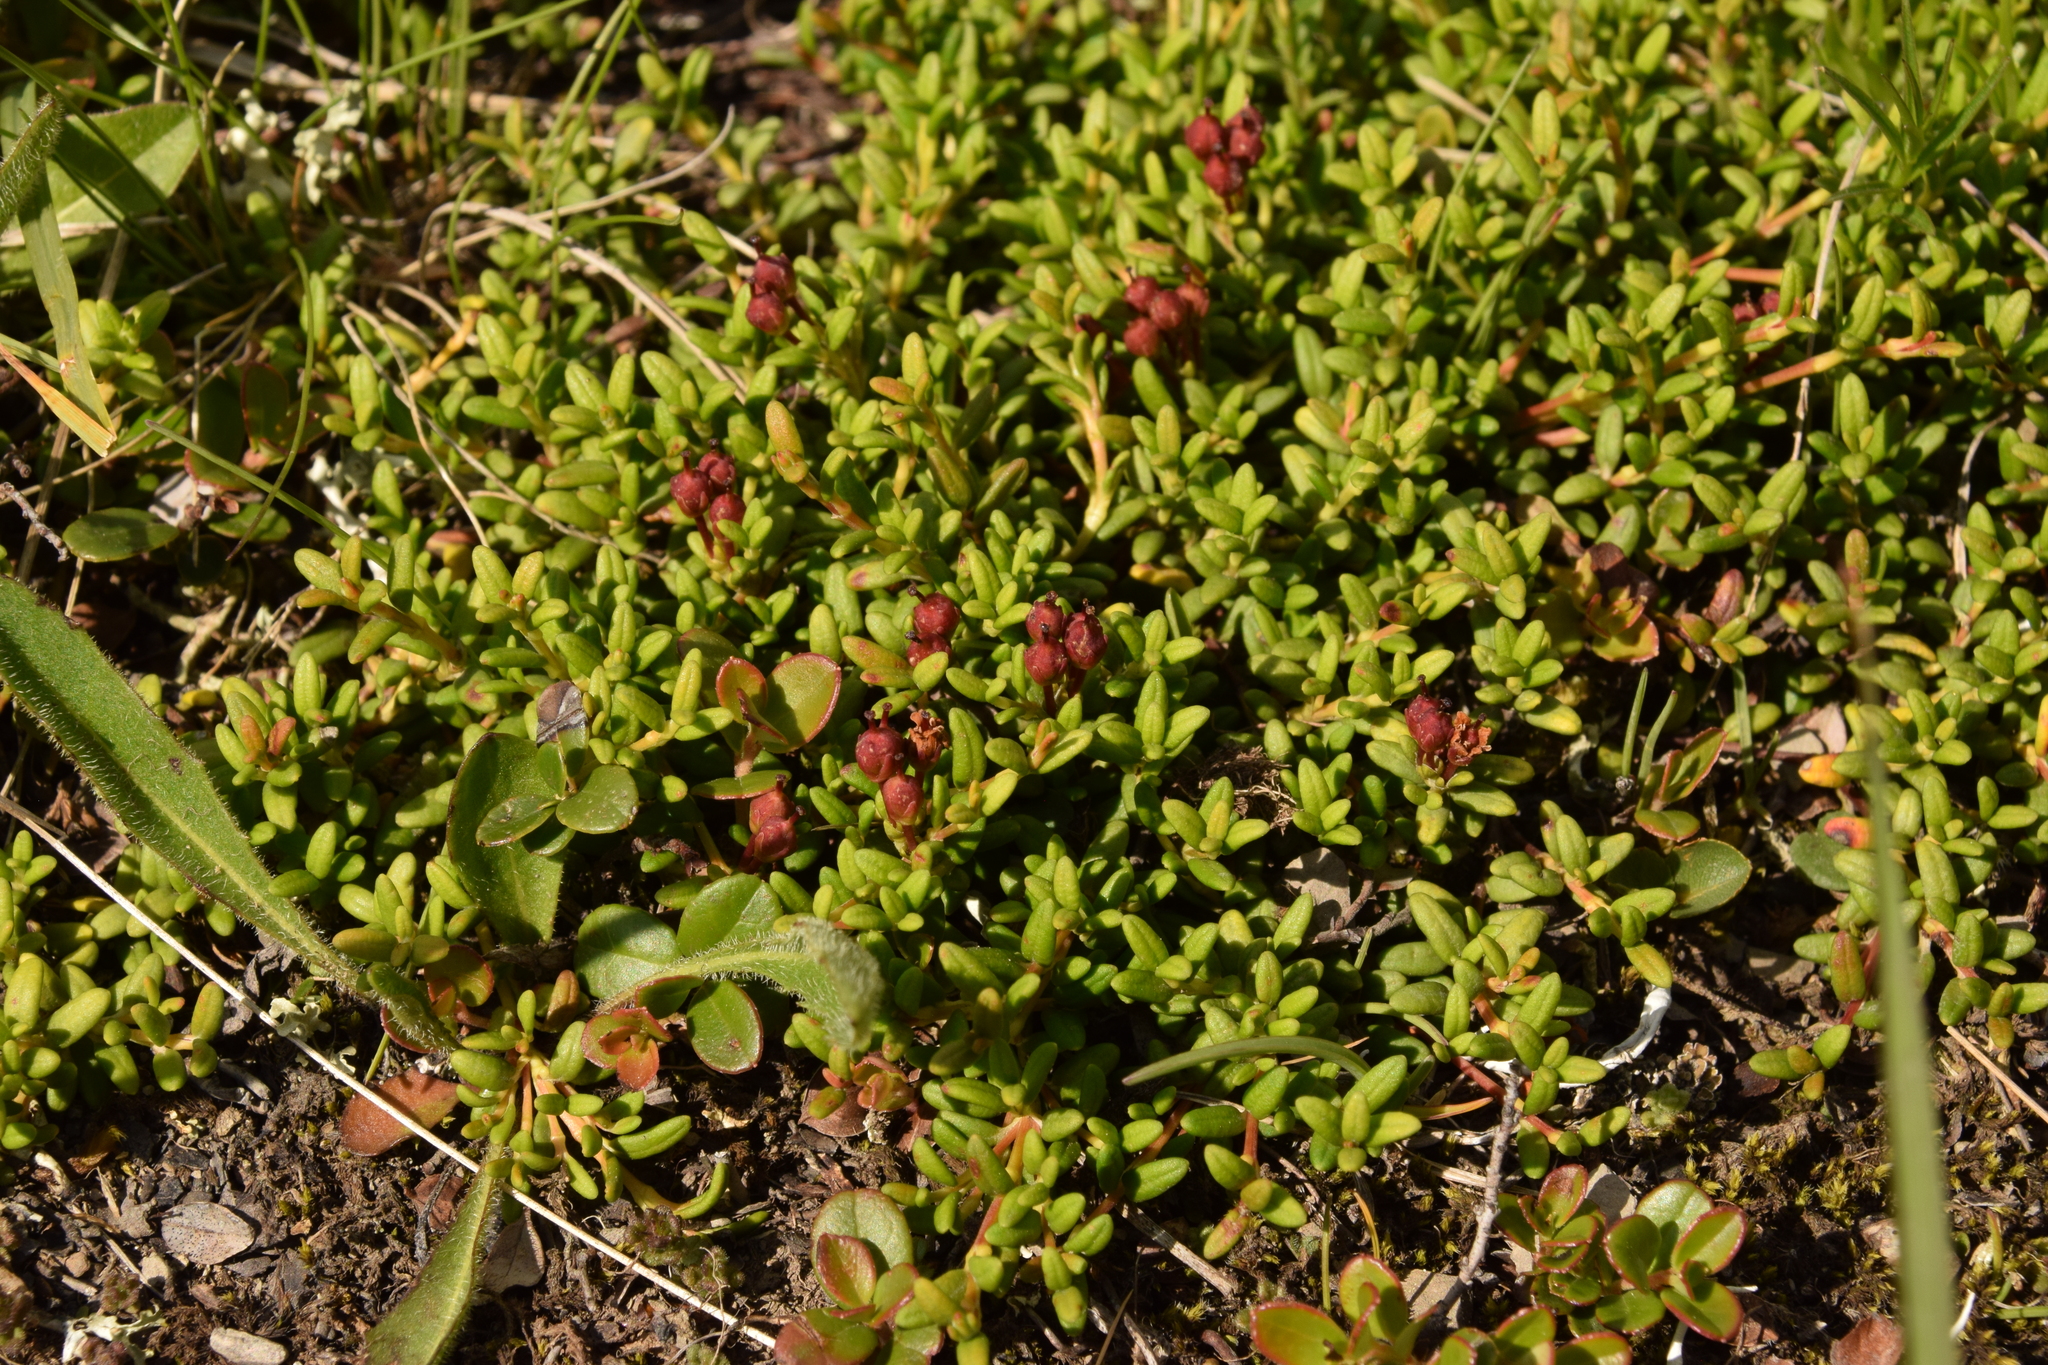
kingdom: Plantae
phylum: Tracheophyta
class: Magnoliopsida
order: Ericales
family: Ericaceae
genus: Kalmia
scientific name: Kalmia procumbens
